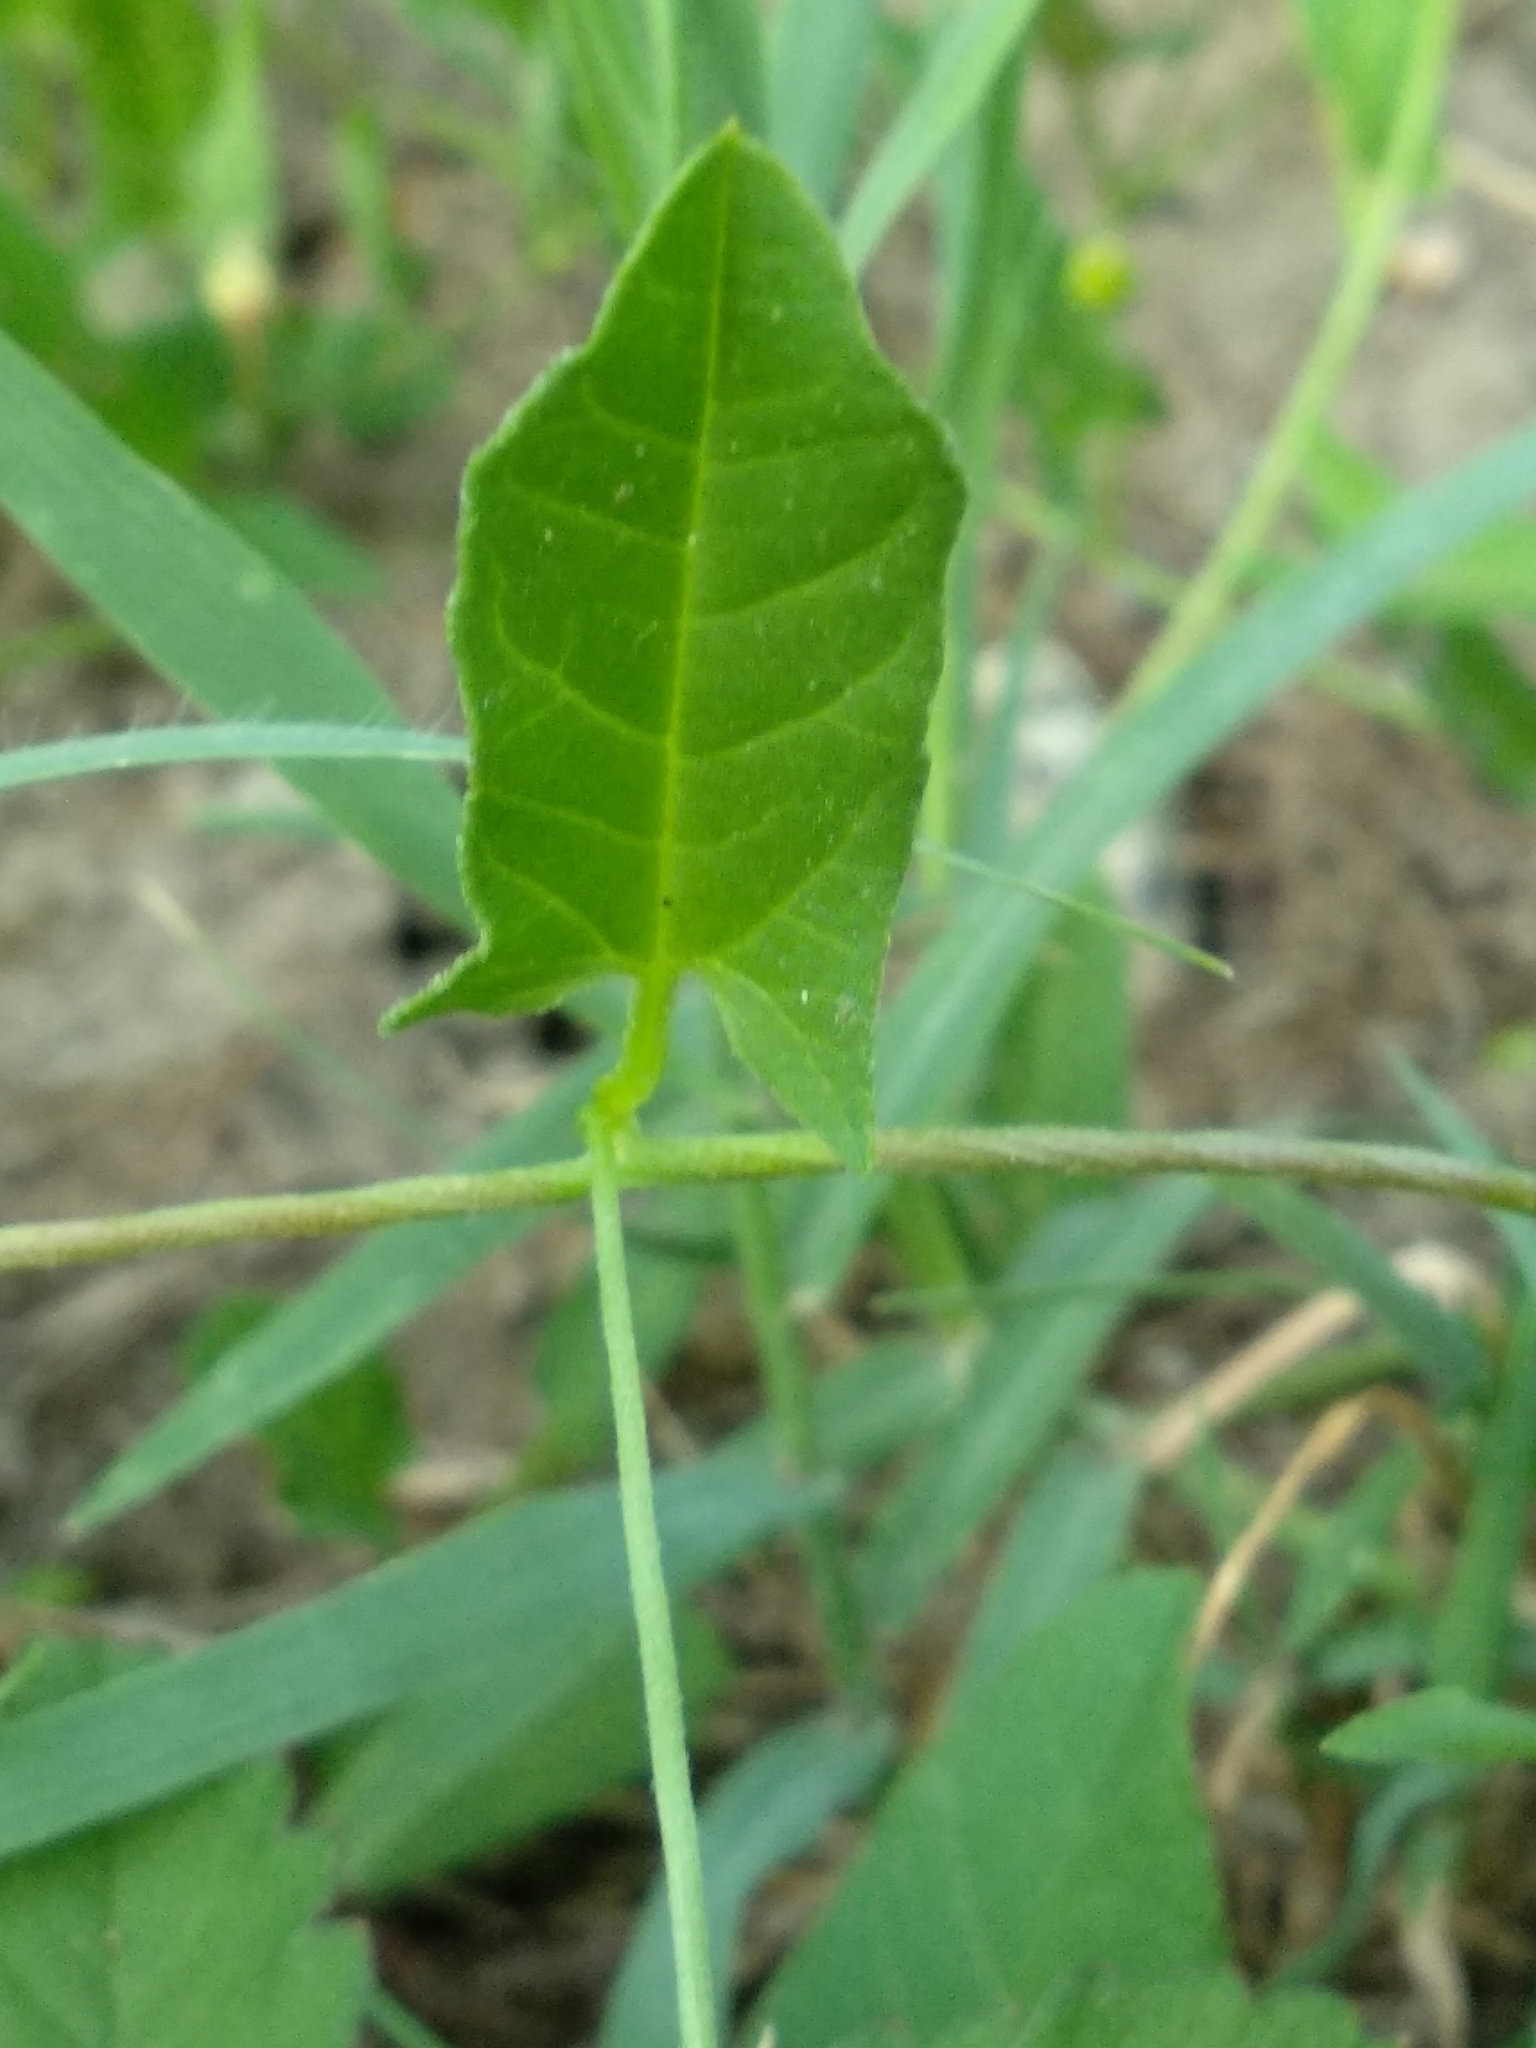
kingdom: Plantae
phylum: Tracheophyta
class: Magnoliopsida
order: Solanales
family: Convolvulaceae
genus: Convolvulus
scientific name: Convolvulus arvensis
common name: Field bindweed
